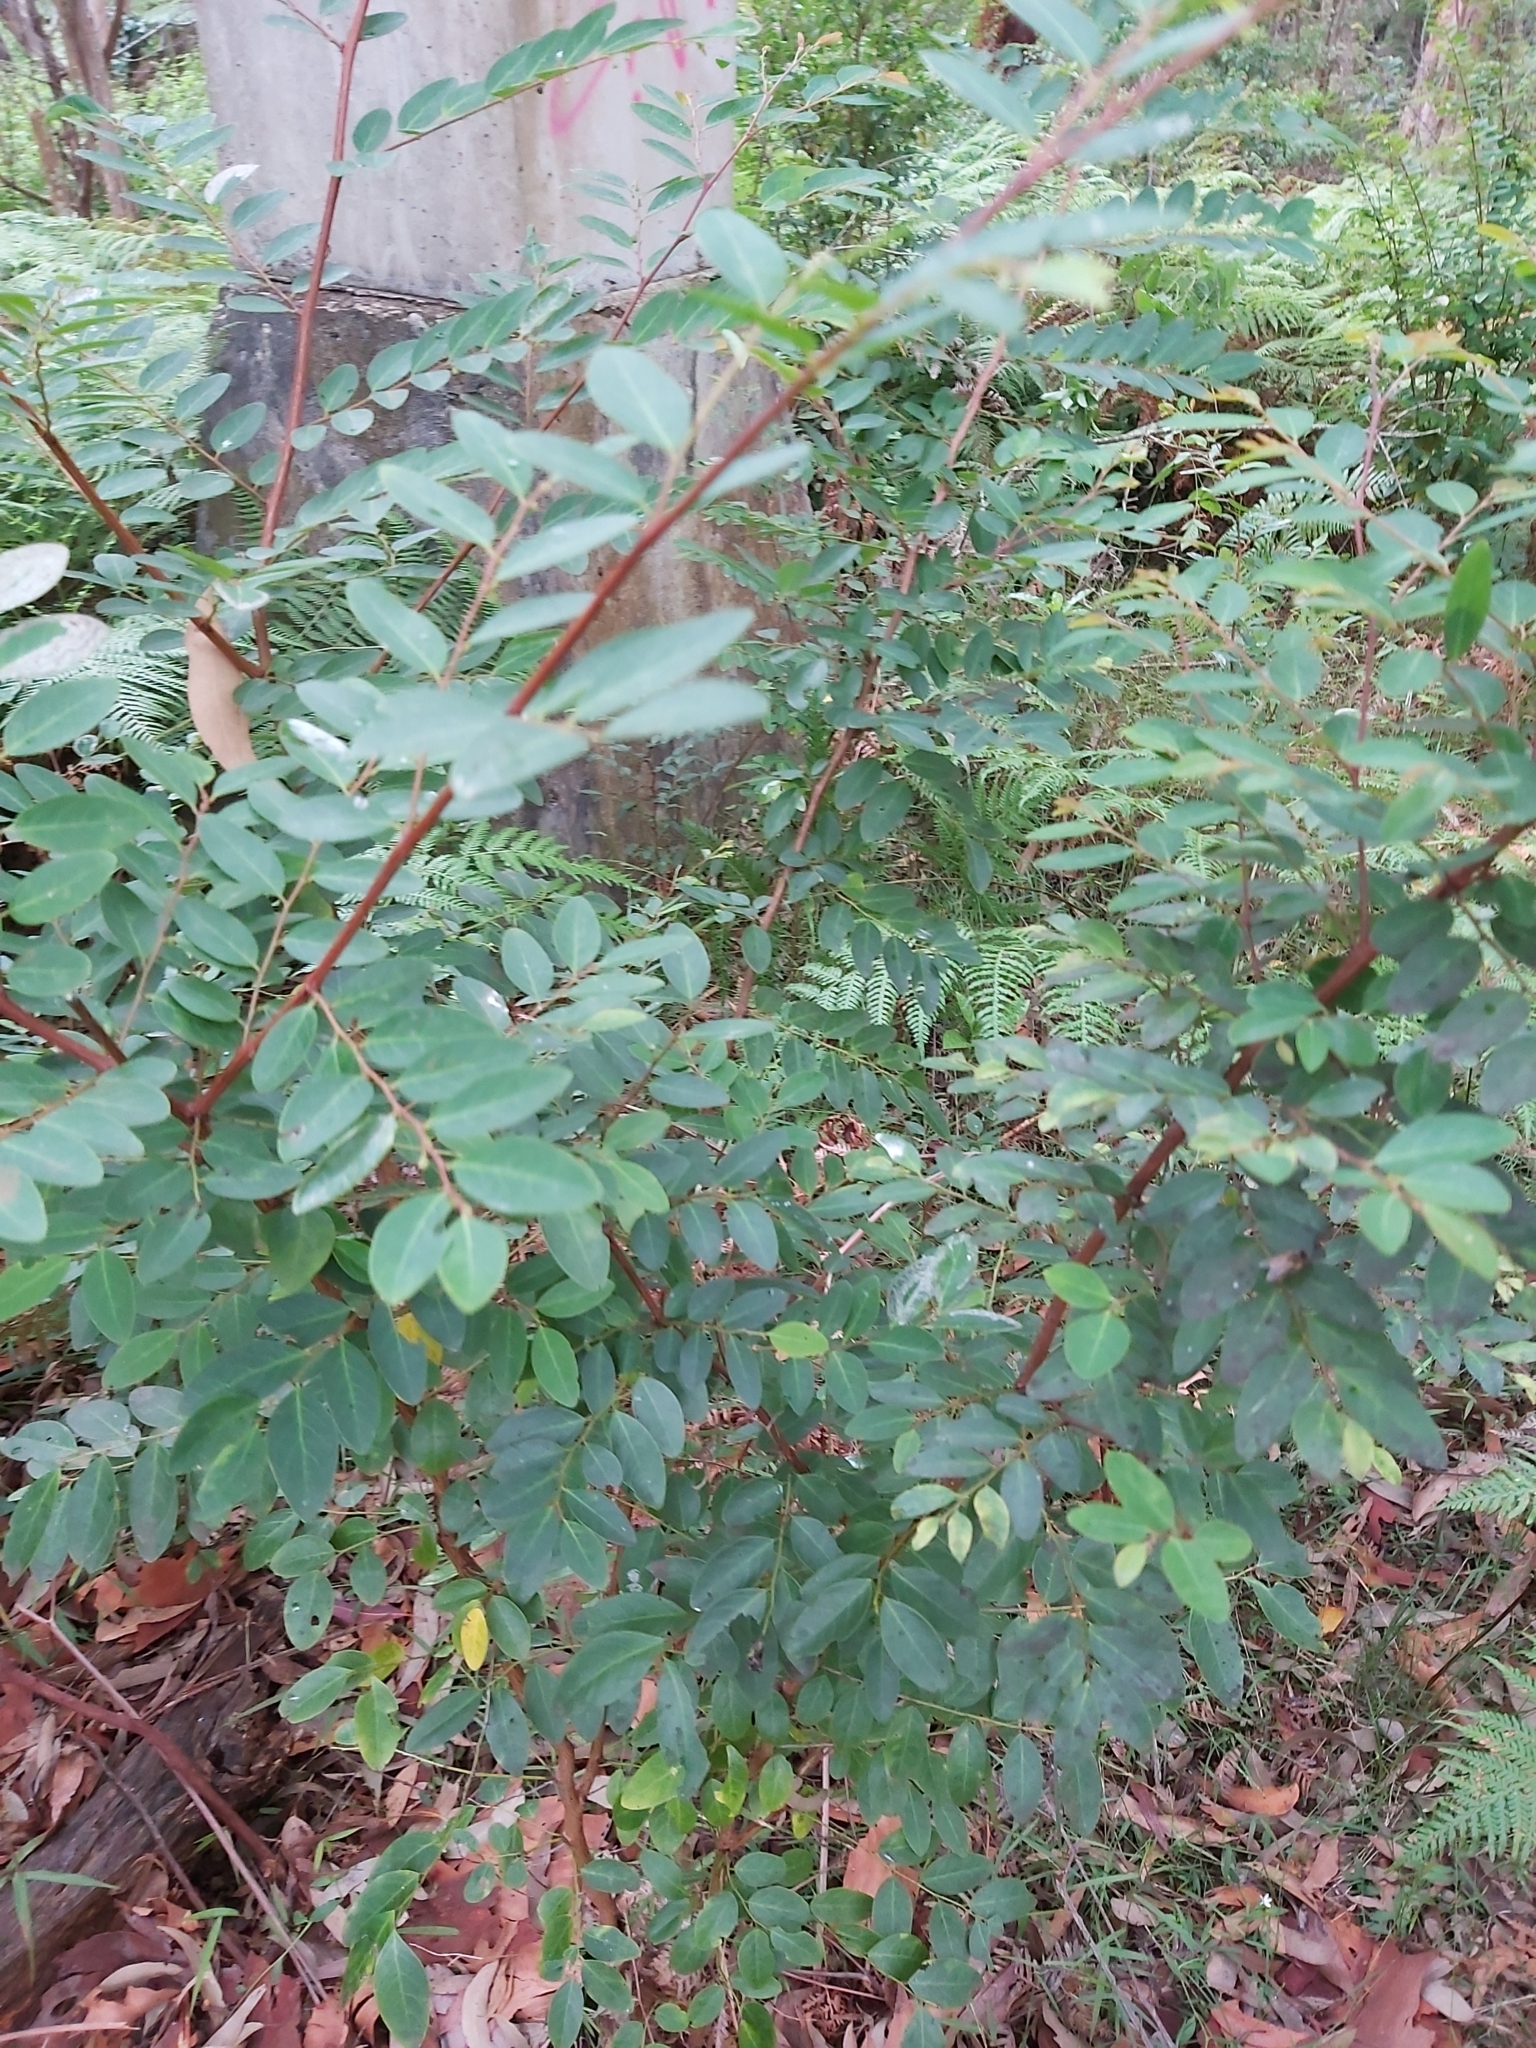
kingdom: Plantae
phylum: Tracheophyta
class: Magnoliopsida
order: Malpighiales
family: Phyllanthaceae
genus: Breynia
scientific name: Breynia oblongifolia
